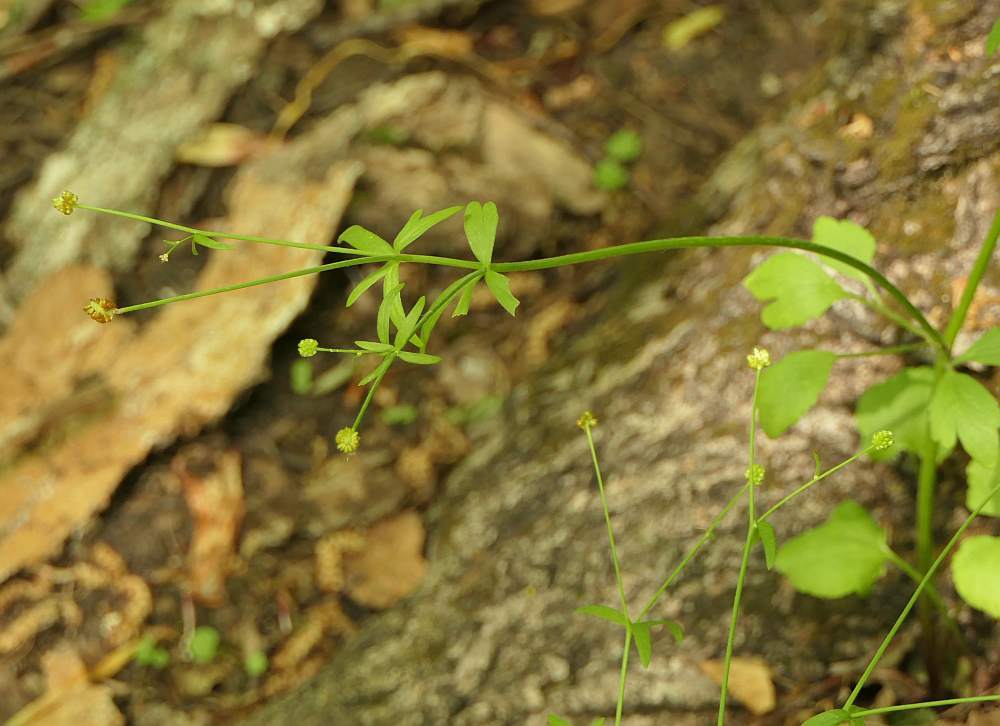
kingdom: Plantae
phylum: Tracheophyta
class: Magnoliopsida
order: Ranunculales
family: Ranunculaceae
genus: Ranunculus
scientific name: Ranunculus abortivus
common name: Early wood buttercup
